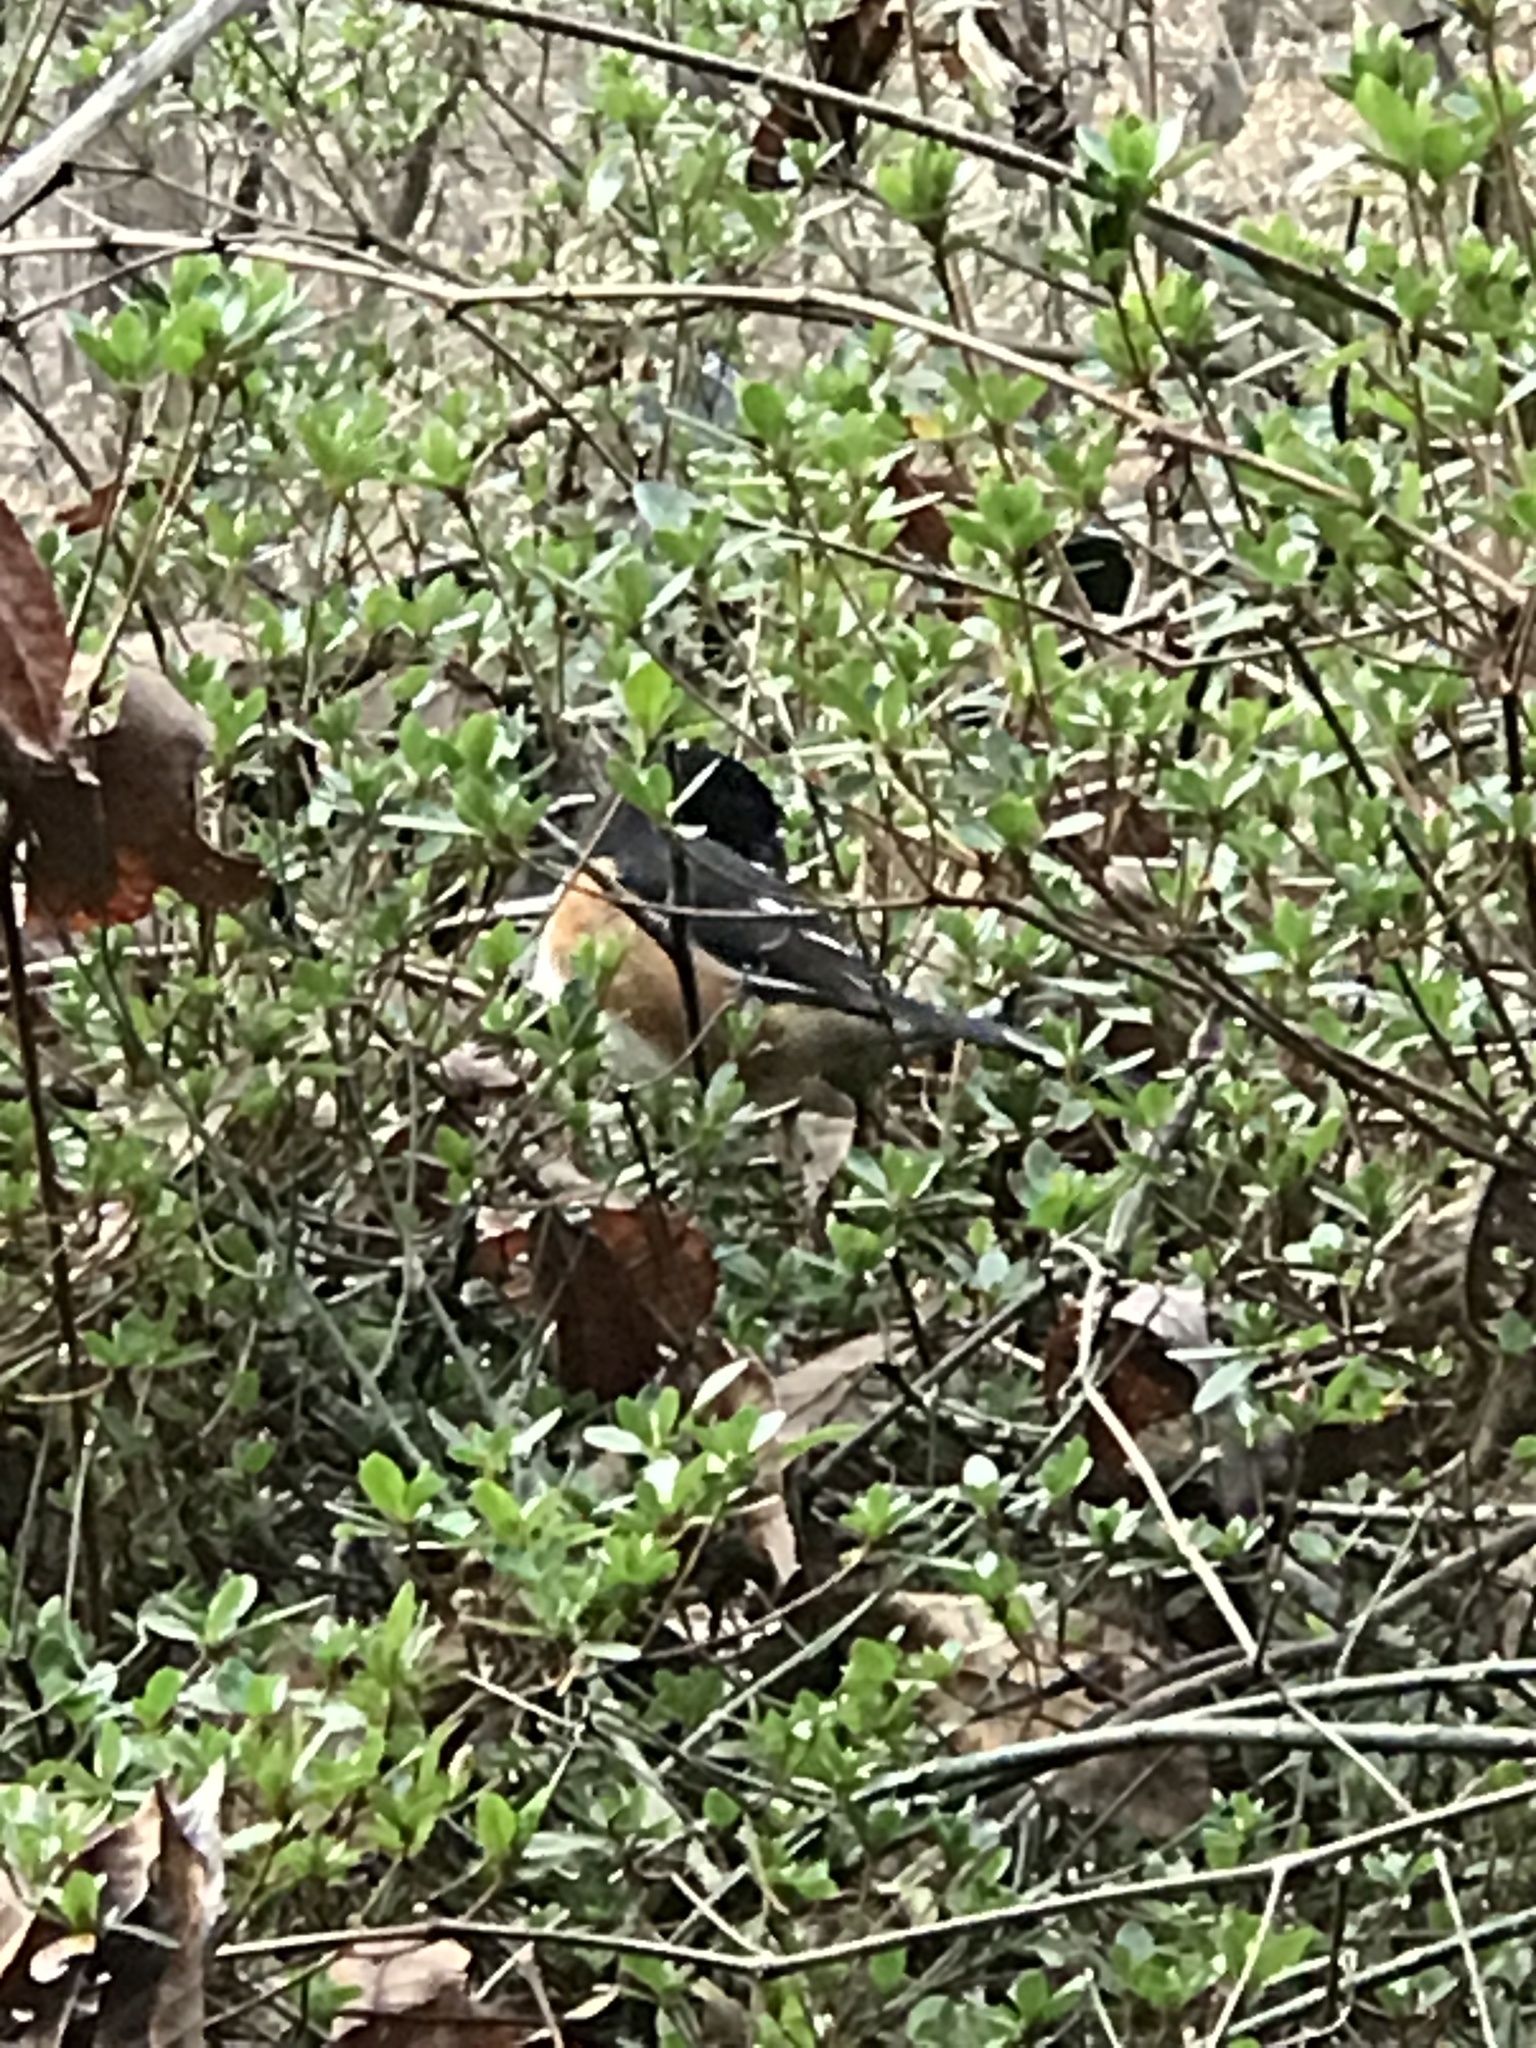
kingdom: Animalia
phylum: Chordata
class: Aves
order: Passeriformes
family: Passerellidae
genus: Pipilo
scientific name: Pipilo erythrophthalmus
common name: Eastern towhee
